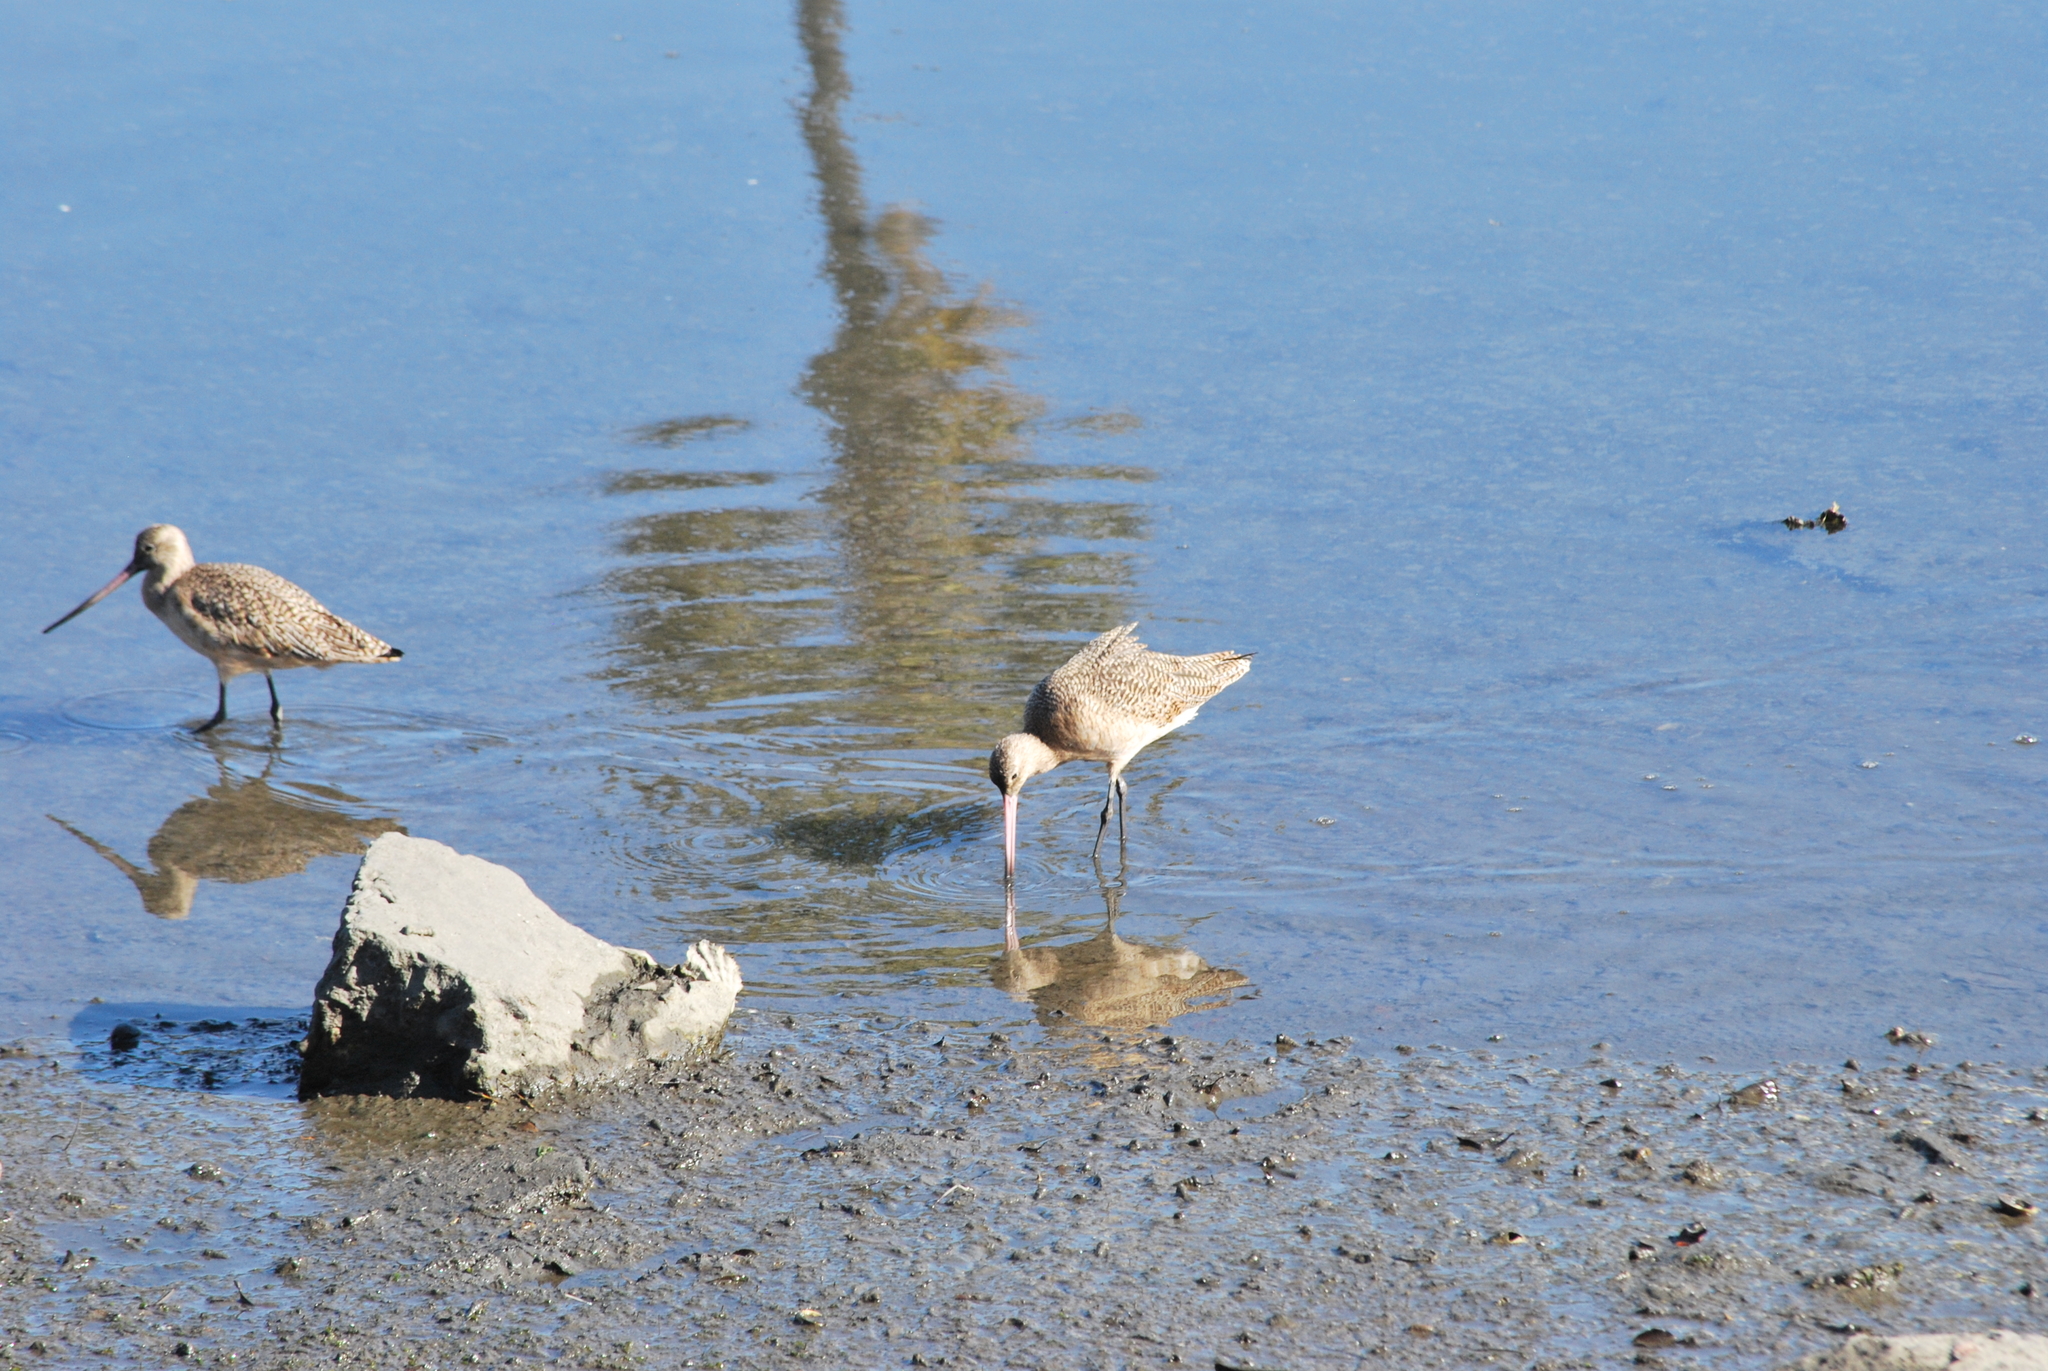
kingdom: Animalia
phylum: Chordata
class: Aves
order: Charadriiformes
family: Scolopacidae
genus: Limosa
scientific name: Limosa fedoa
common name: Marbled godwit
